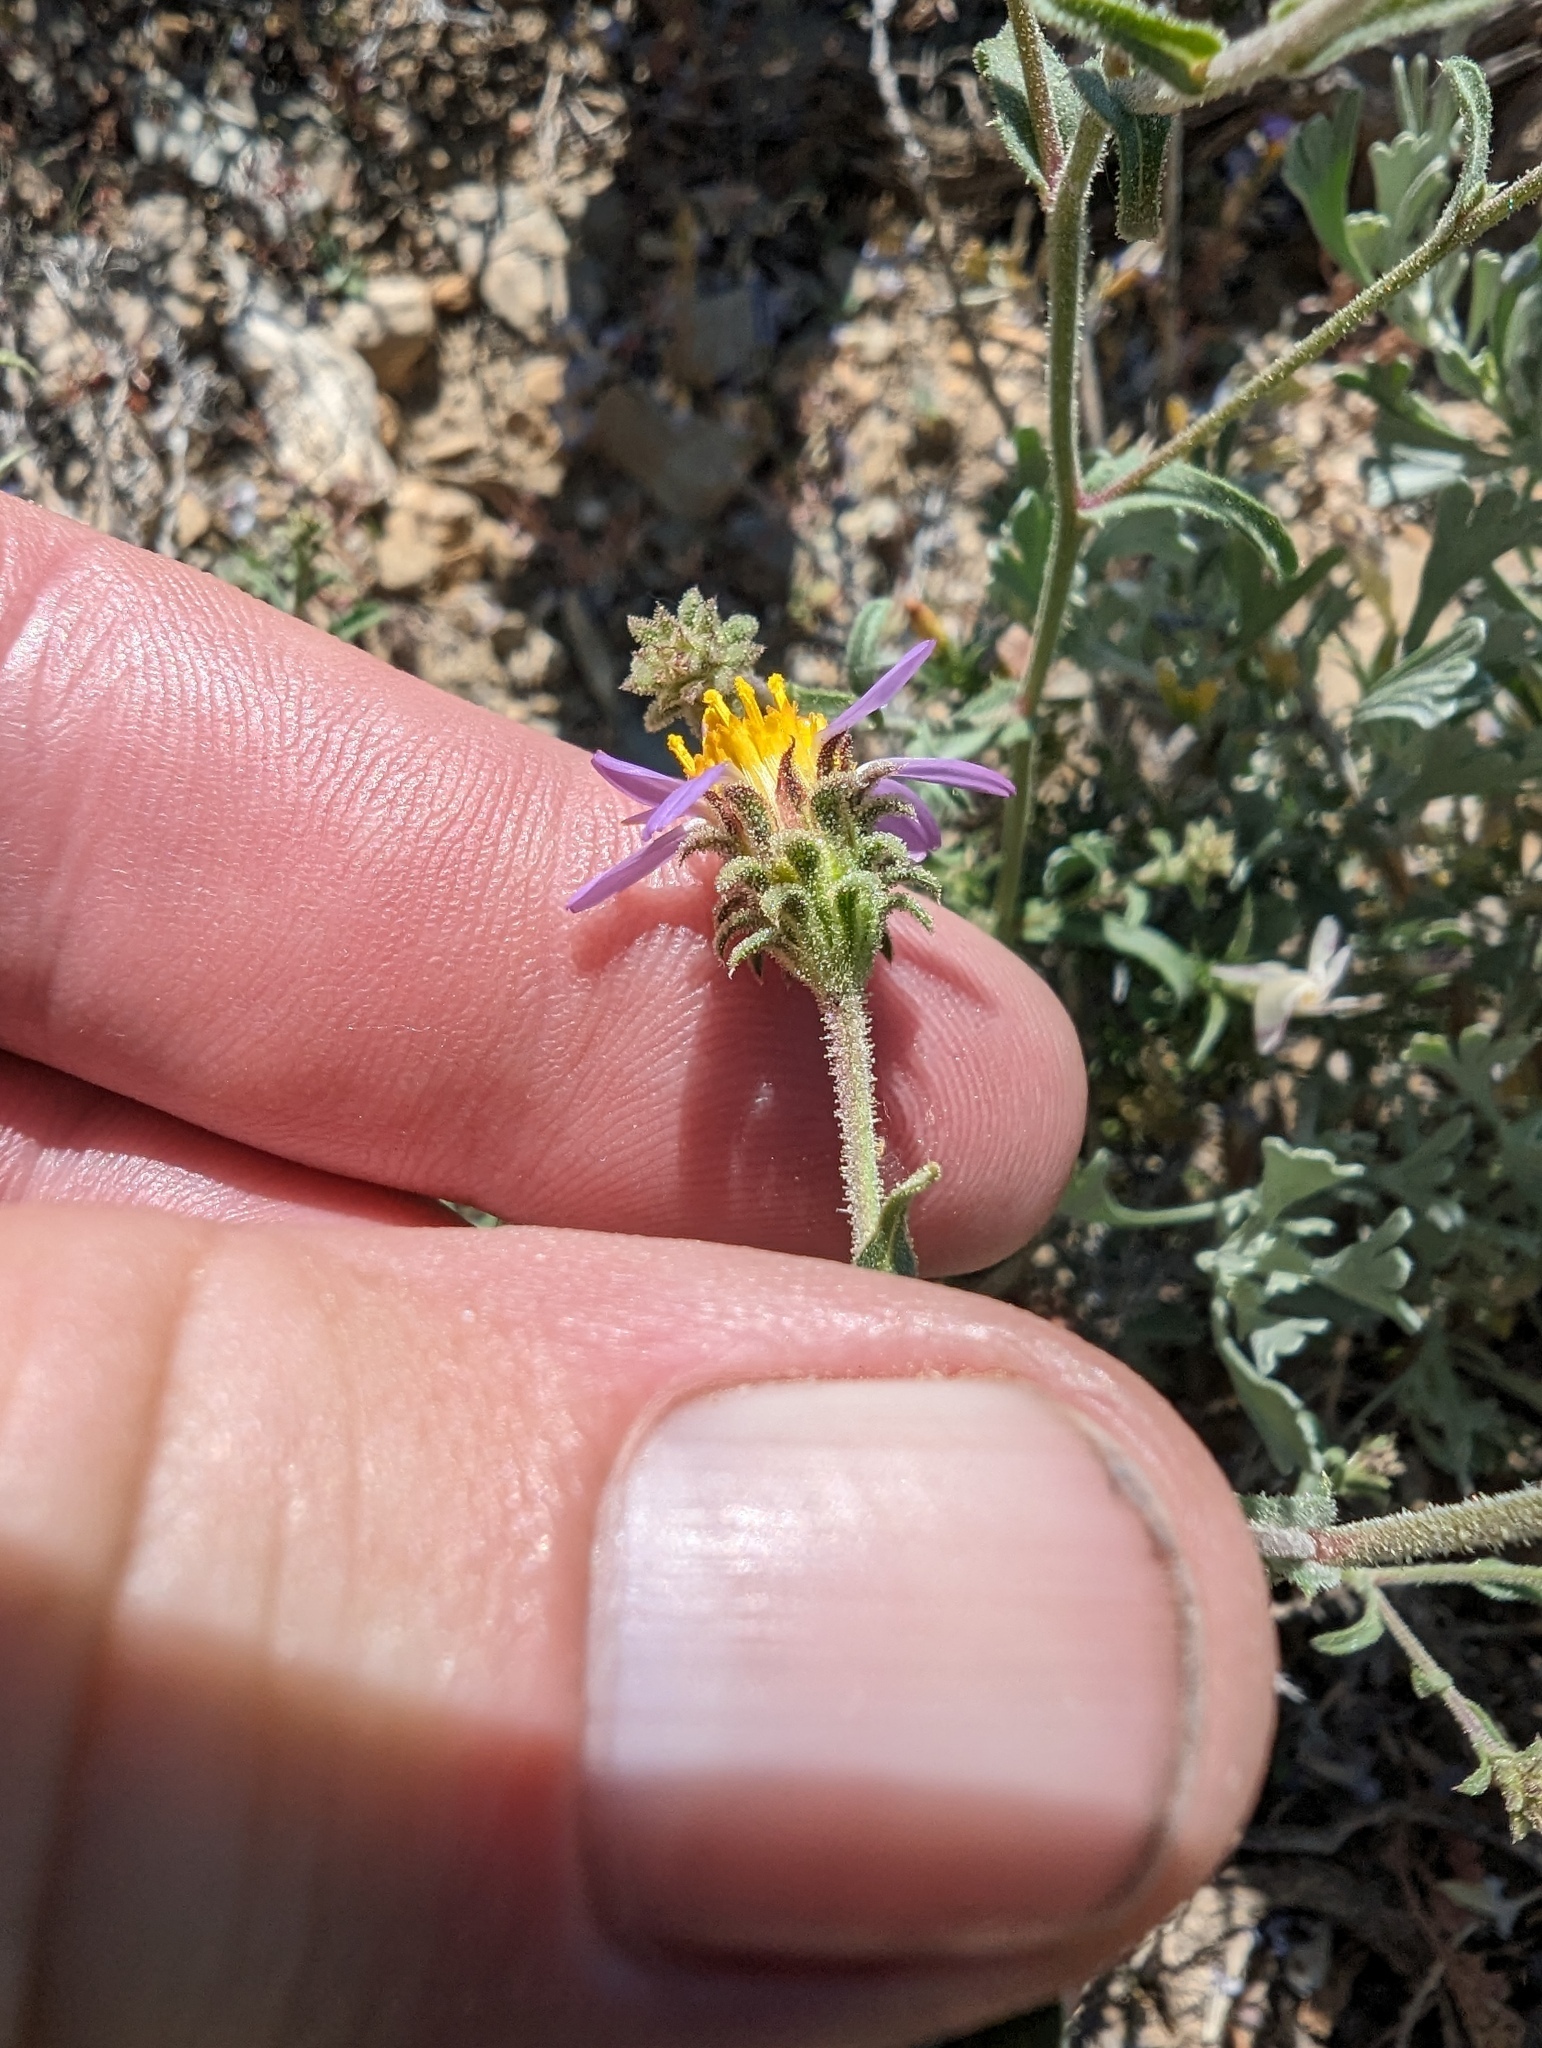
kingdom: Plantae
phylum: Tracheophyta
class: Magnoliopsida
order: Asterales
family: Asteraceae
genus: Dieteria
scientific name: Dieteria canescens
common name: Hoary-aster
